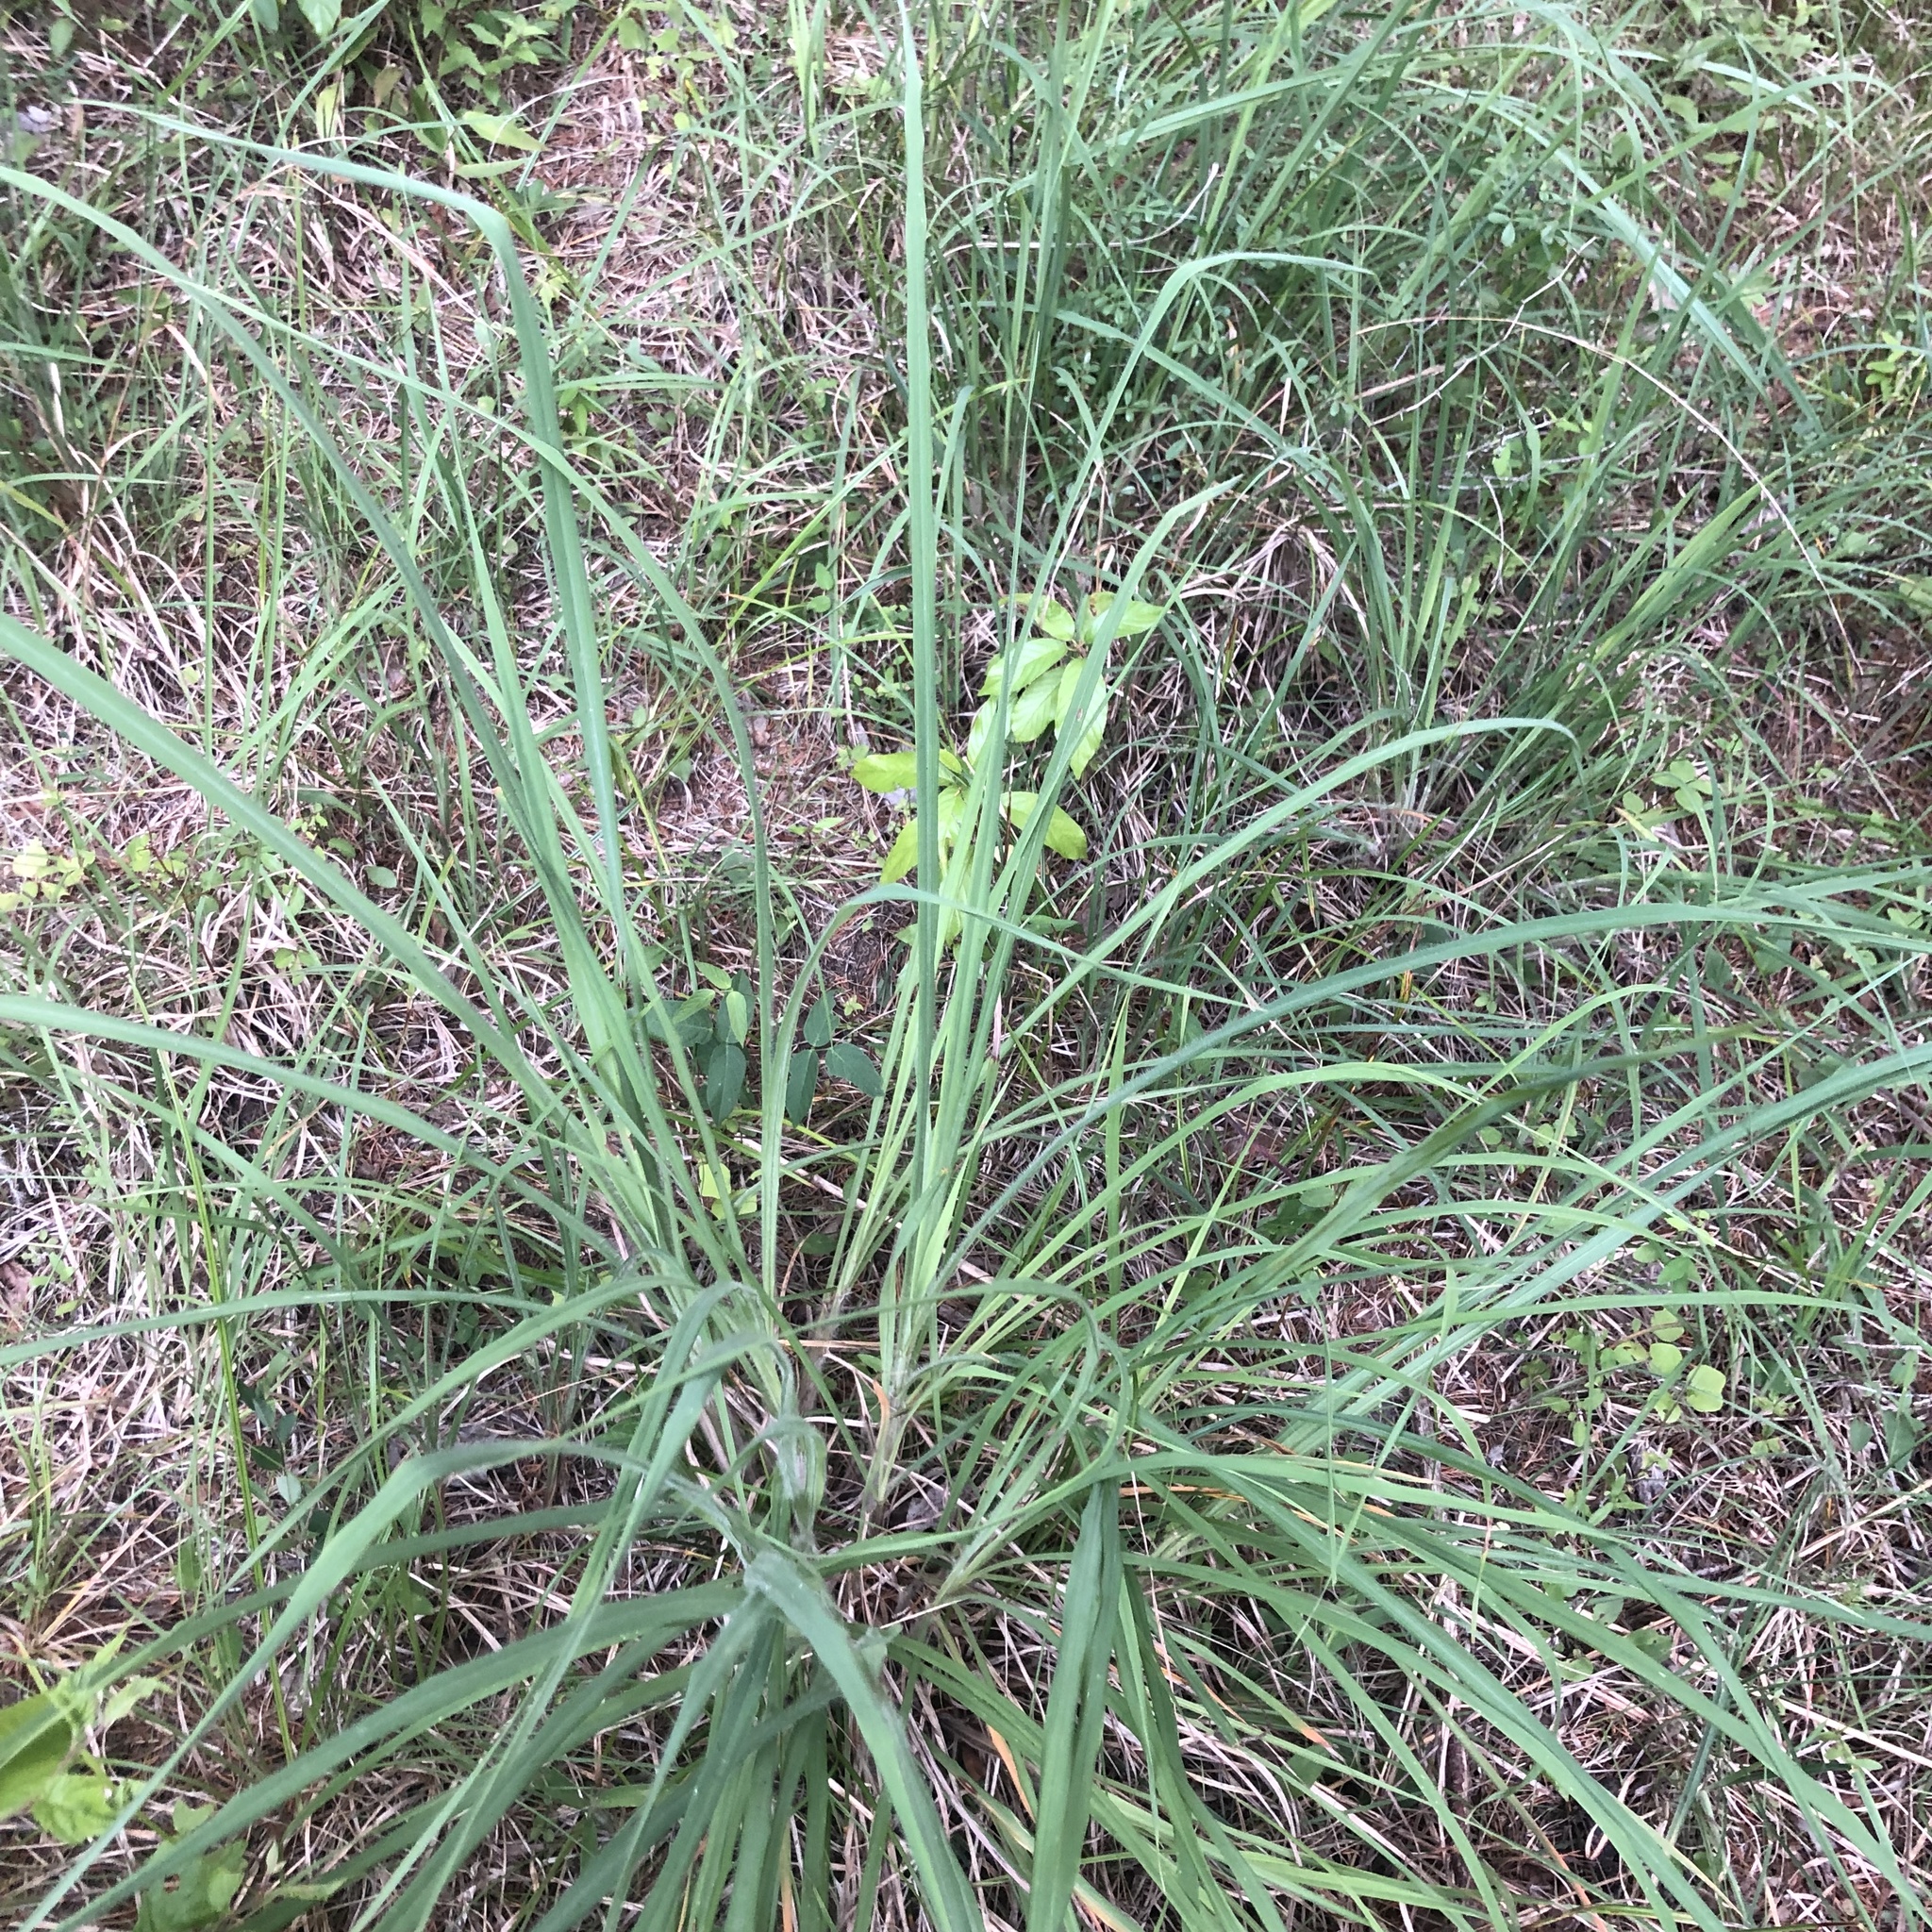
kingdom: Plantae
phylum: Tracheophyta
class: Liliopsida
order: Poales
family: Poaceae
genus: Andropogon
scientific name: Andropogon gerardi
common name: Big bluestem
